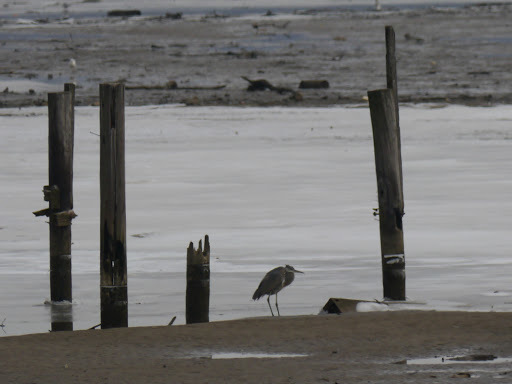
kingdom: Animalia
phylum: Chordata
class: Aves
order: Pelecaniformes
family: Ardeidae
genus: Ardea
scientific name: Ardea herodias
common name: Great blue heron
